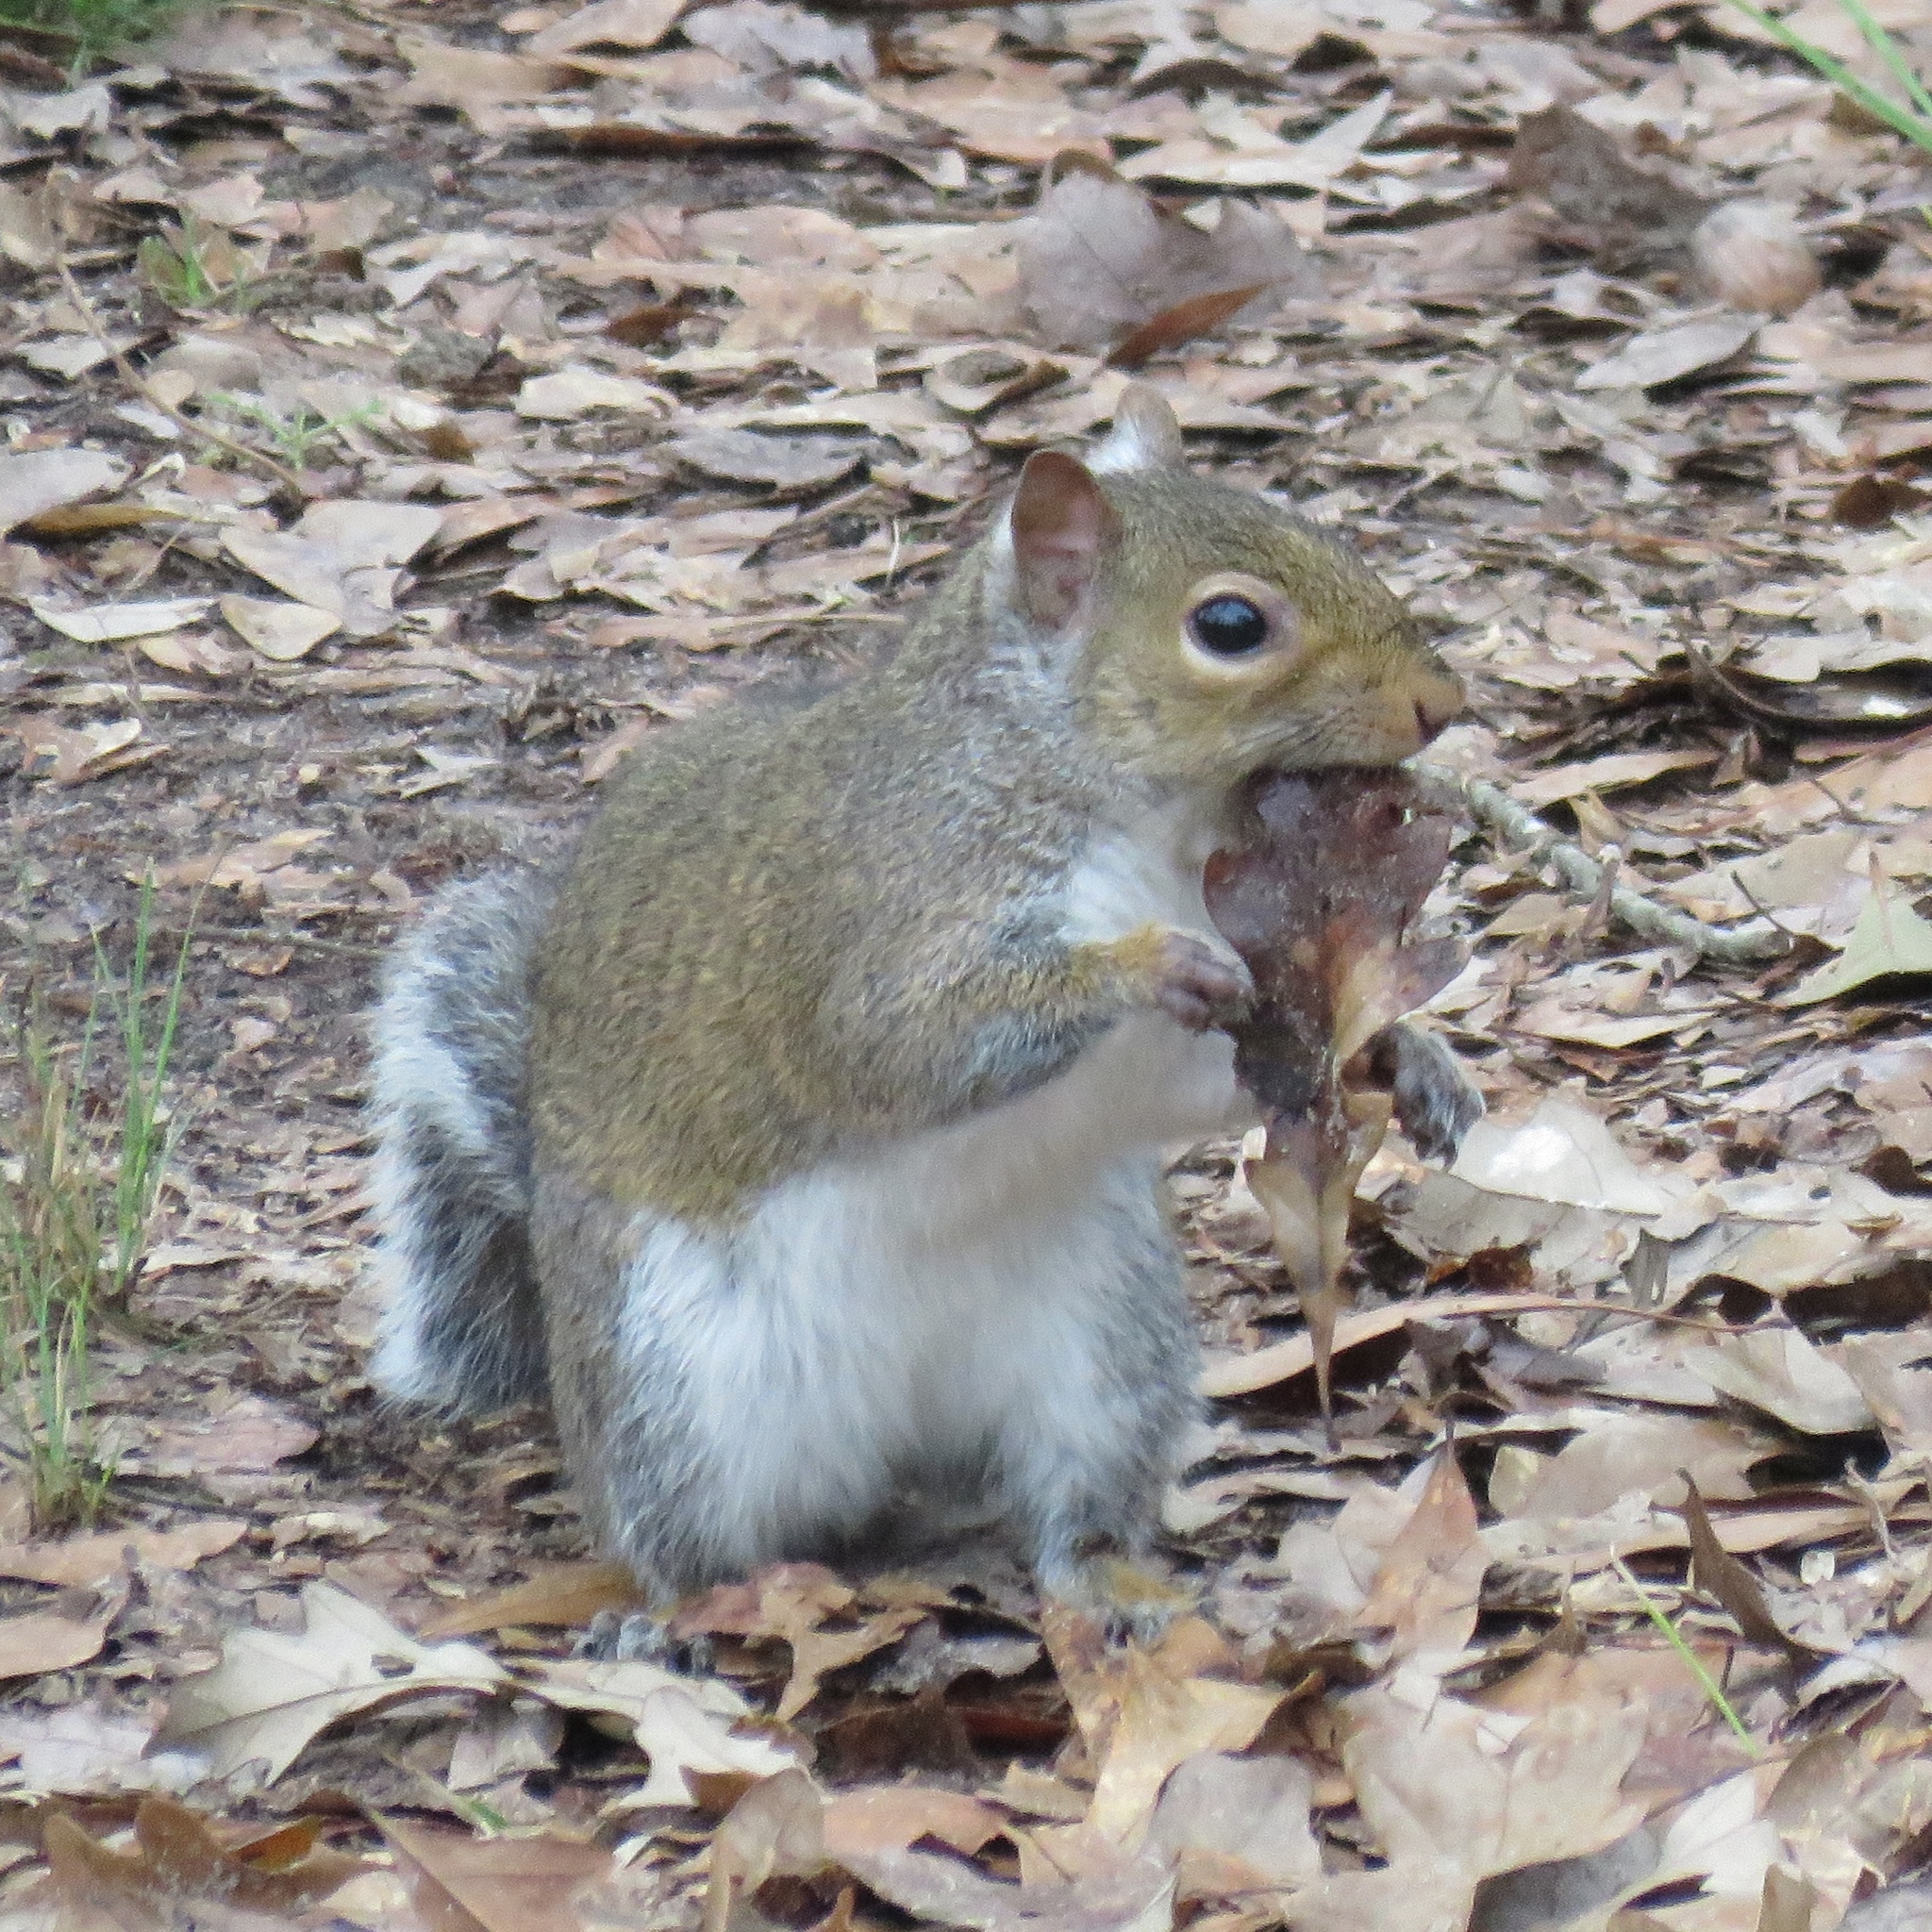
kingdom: Animalia
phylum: Chordata
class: Mammalia
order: Rodentia
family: Sciuridae
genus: Sciurus
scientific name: Sciurus carolinensis
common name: Eastern gray squirrel
